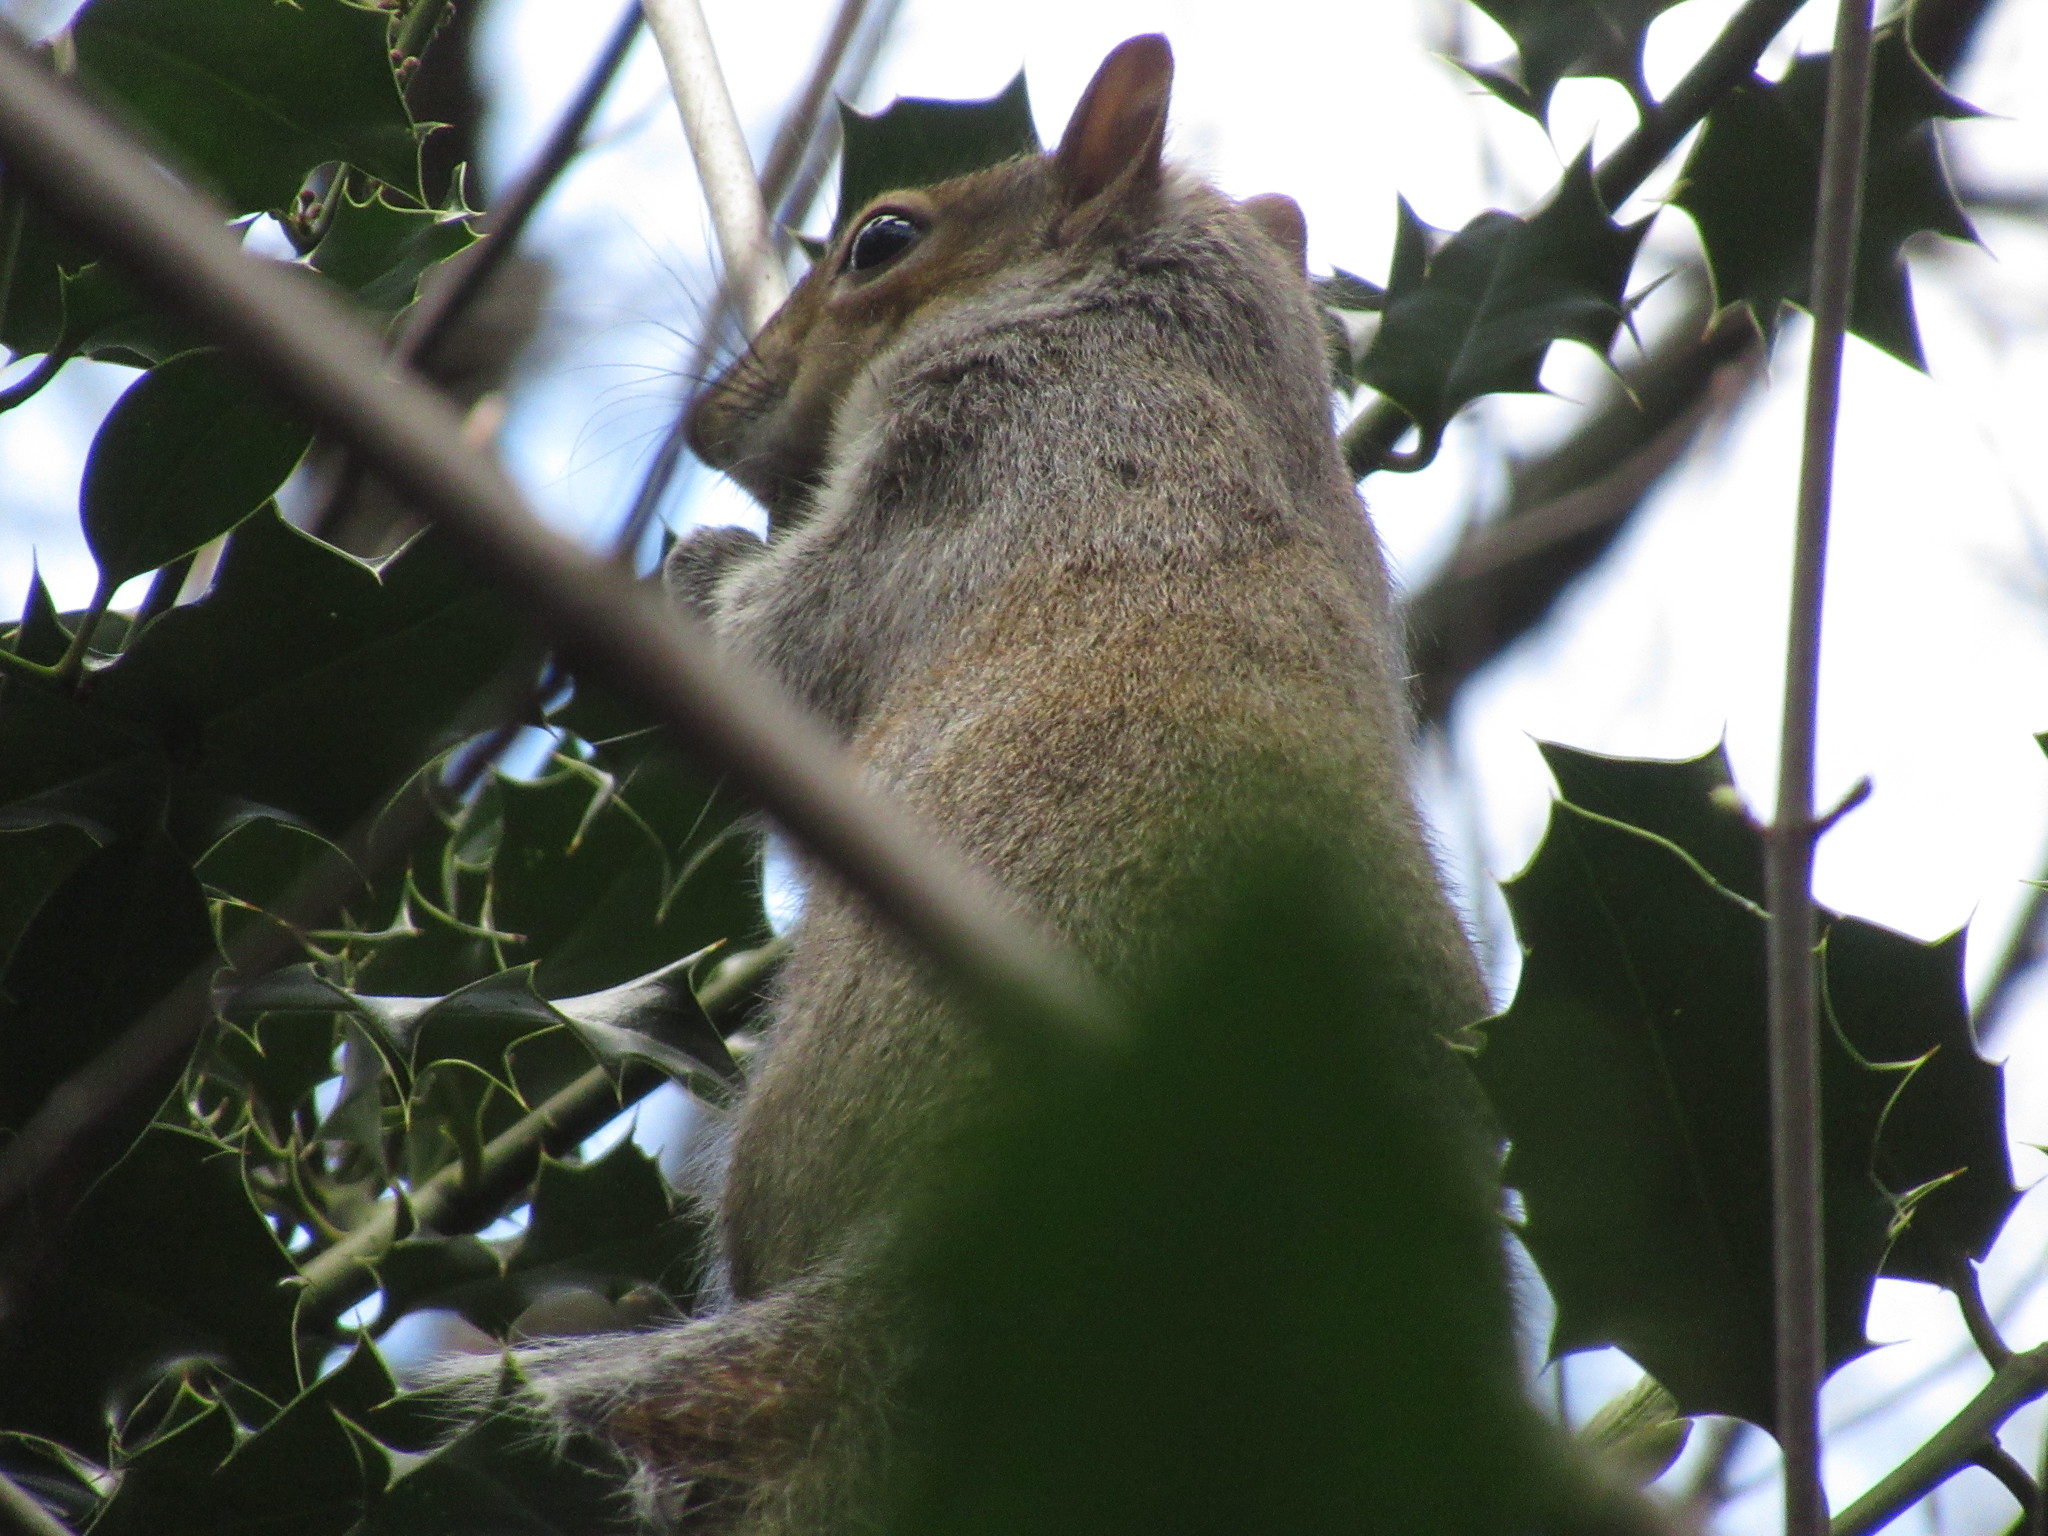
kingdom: Animalia
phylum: Chordata
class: Mammalia
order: Rodentia
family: Sciuridae
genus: Sciurus
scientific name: Sciurus carolinensis
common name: Eastern gray squirrel
